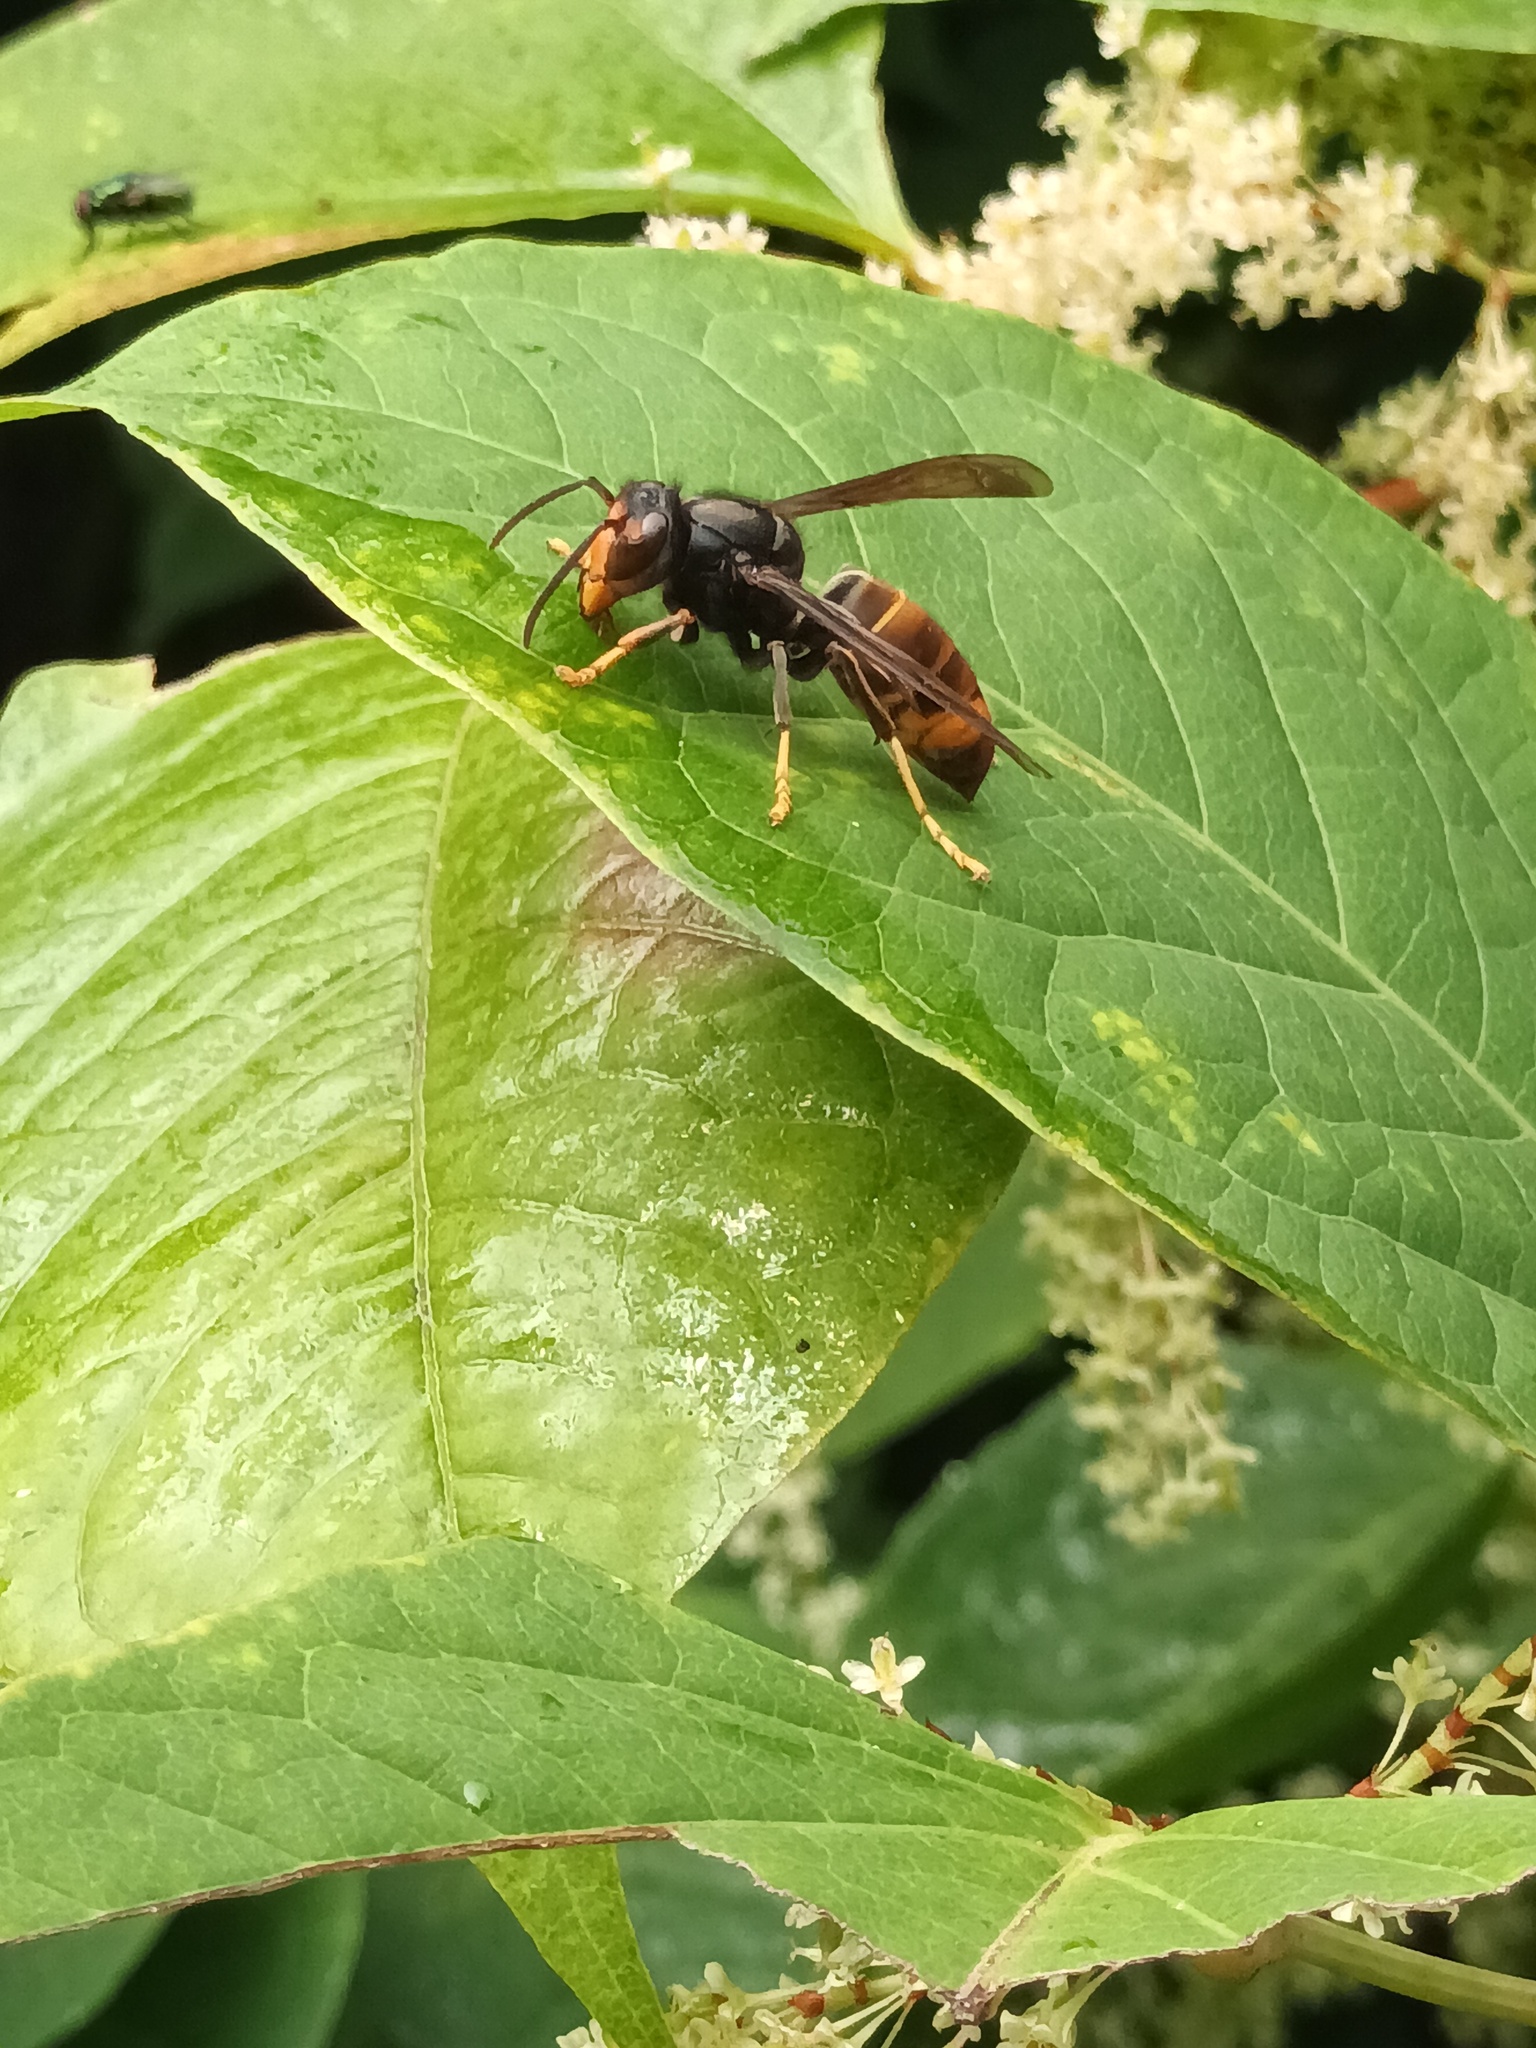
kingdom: Animalia
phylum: Arthropoda
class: Insecta
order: Hymenoptera
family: Vespidae
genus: Vespa
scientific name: Vespa velutina
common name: Asian hornet
